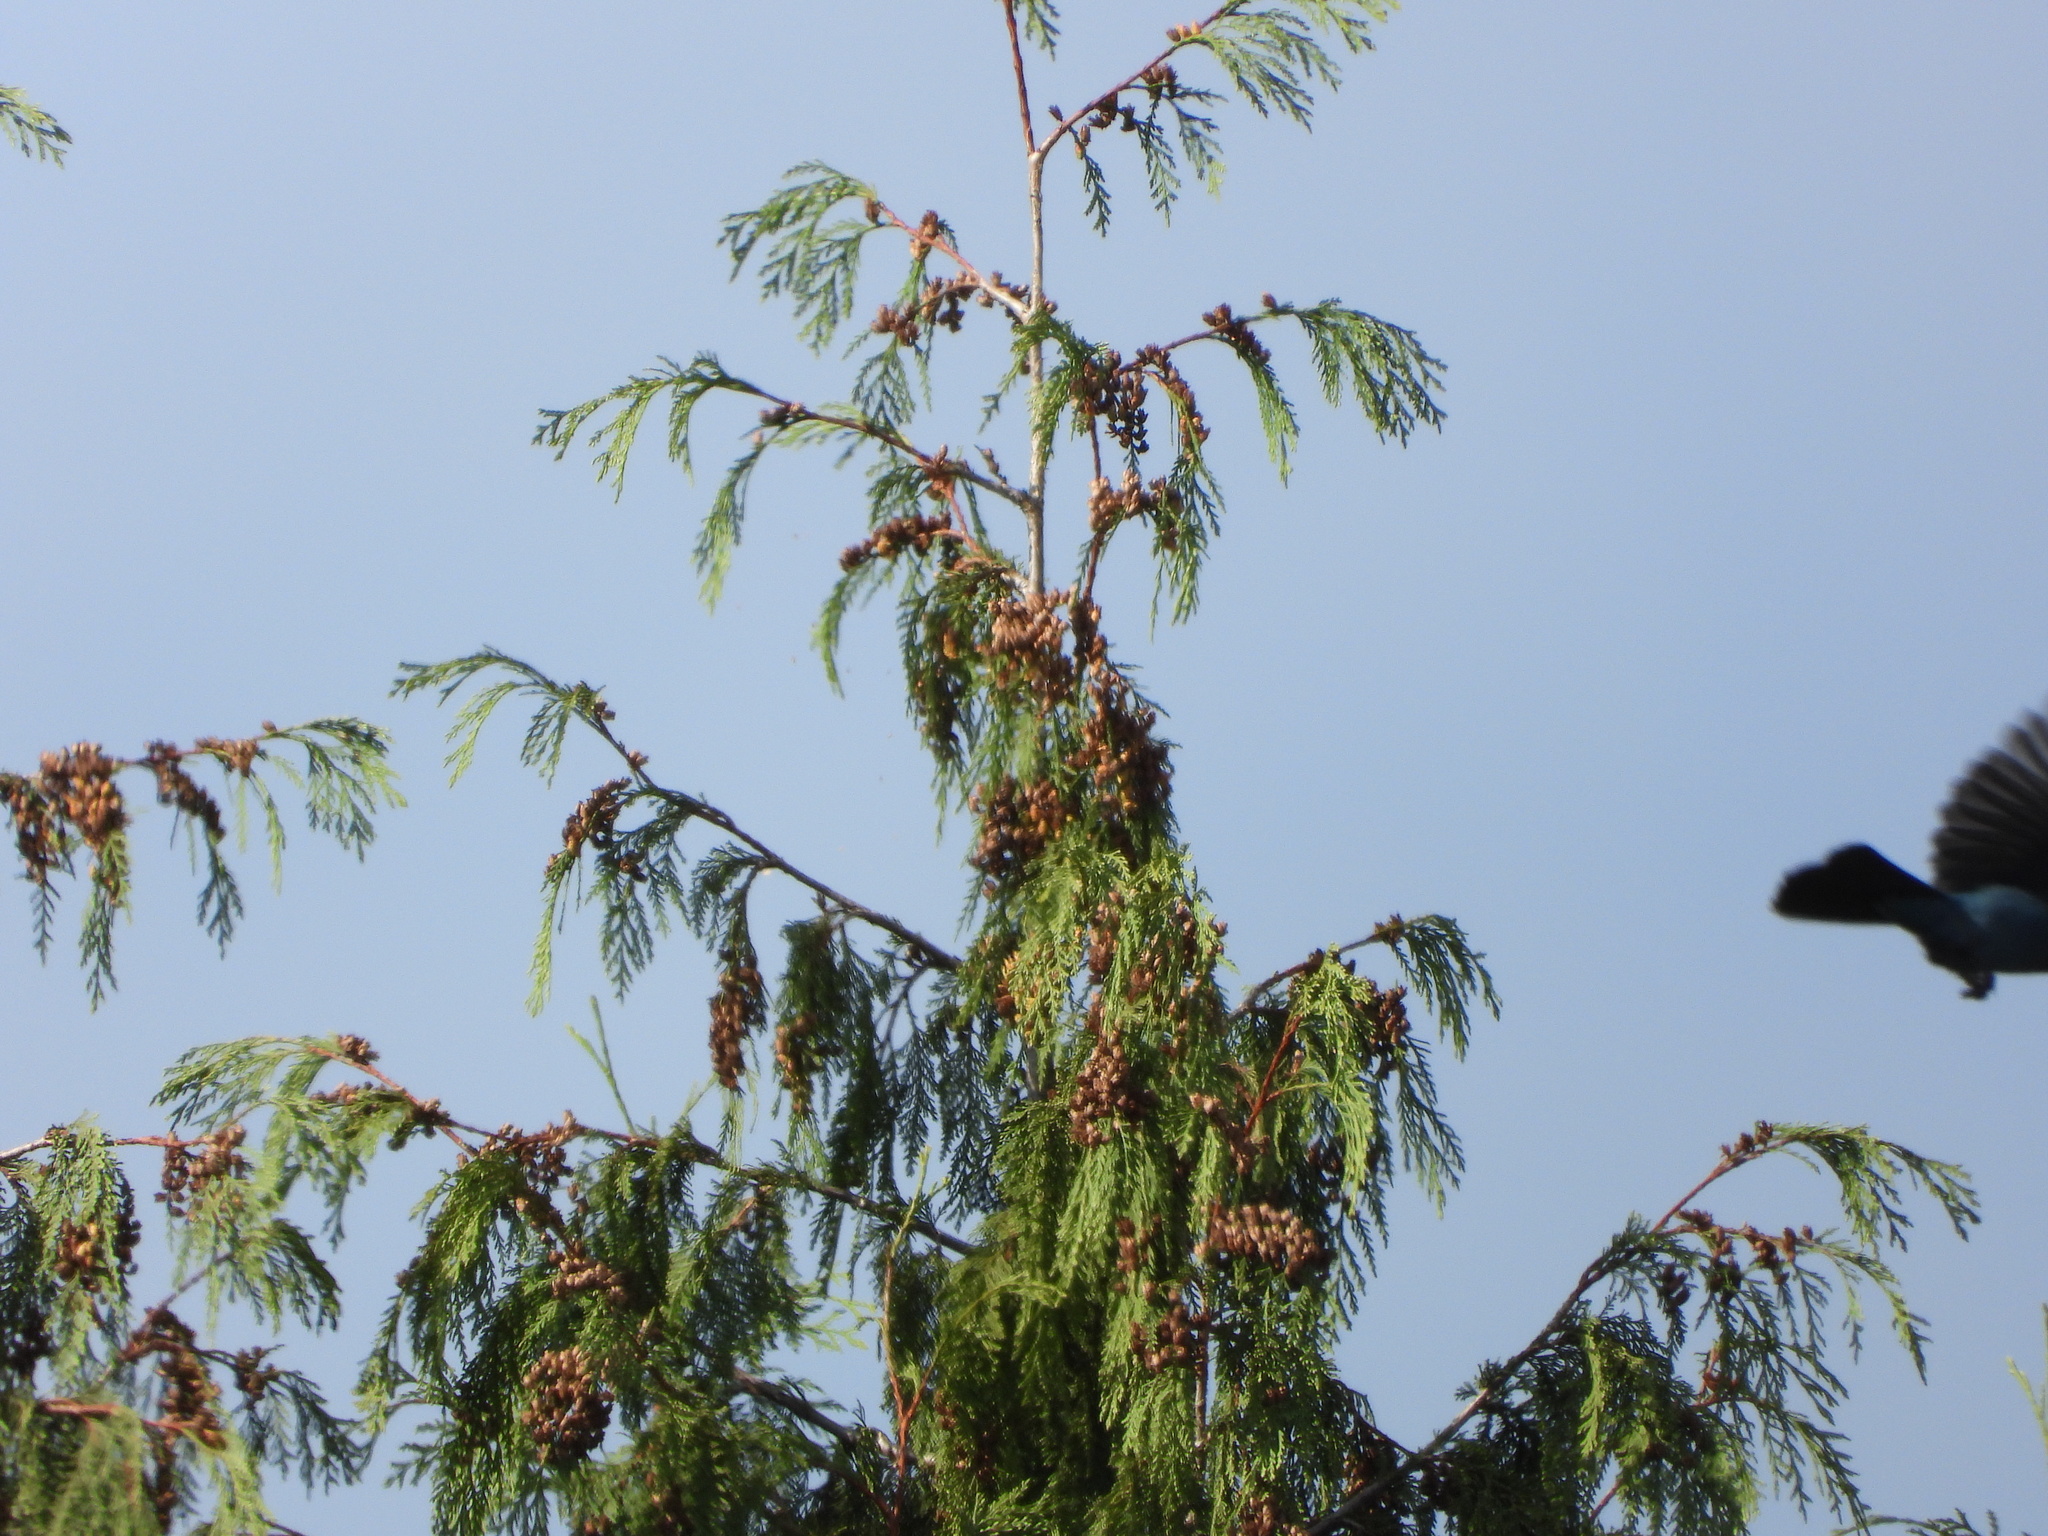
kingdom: Animalia
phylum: Chordata
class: Aves
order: Passeriformes
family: Corvidae
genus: Cyanocitta
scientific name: Cyanocitta stelleri
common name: Steller's jay
